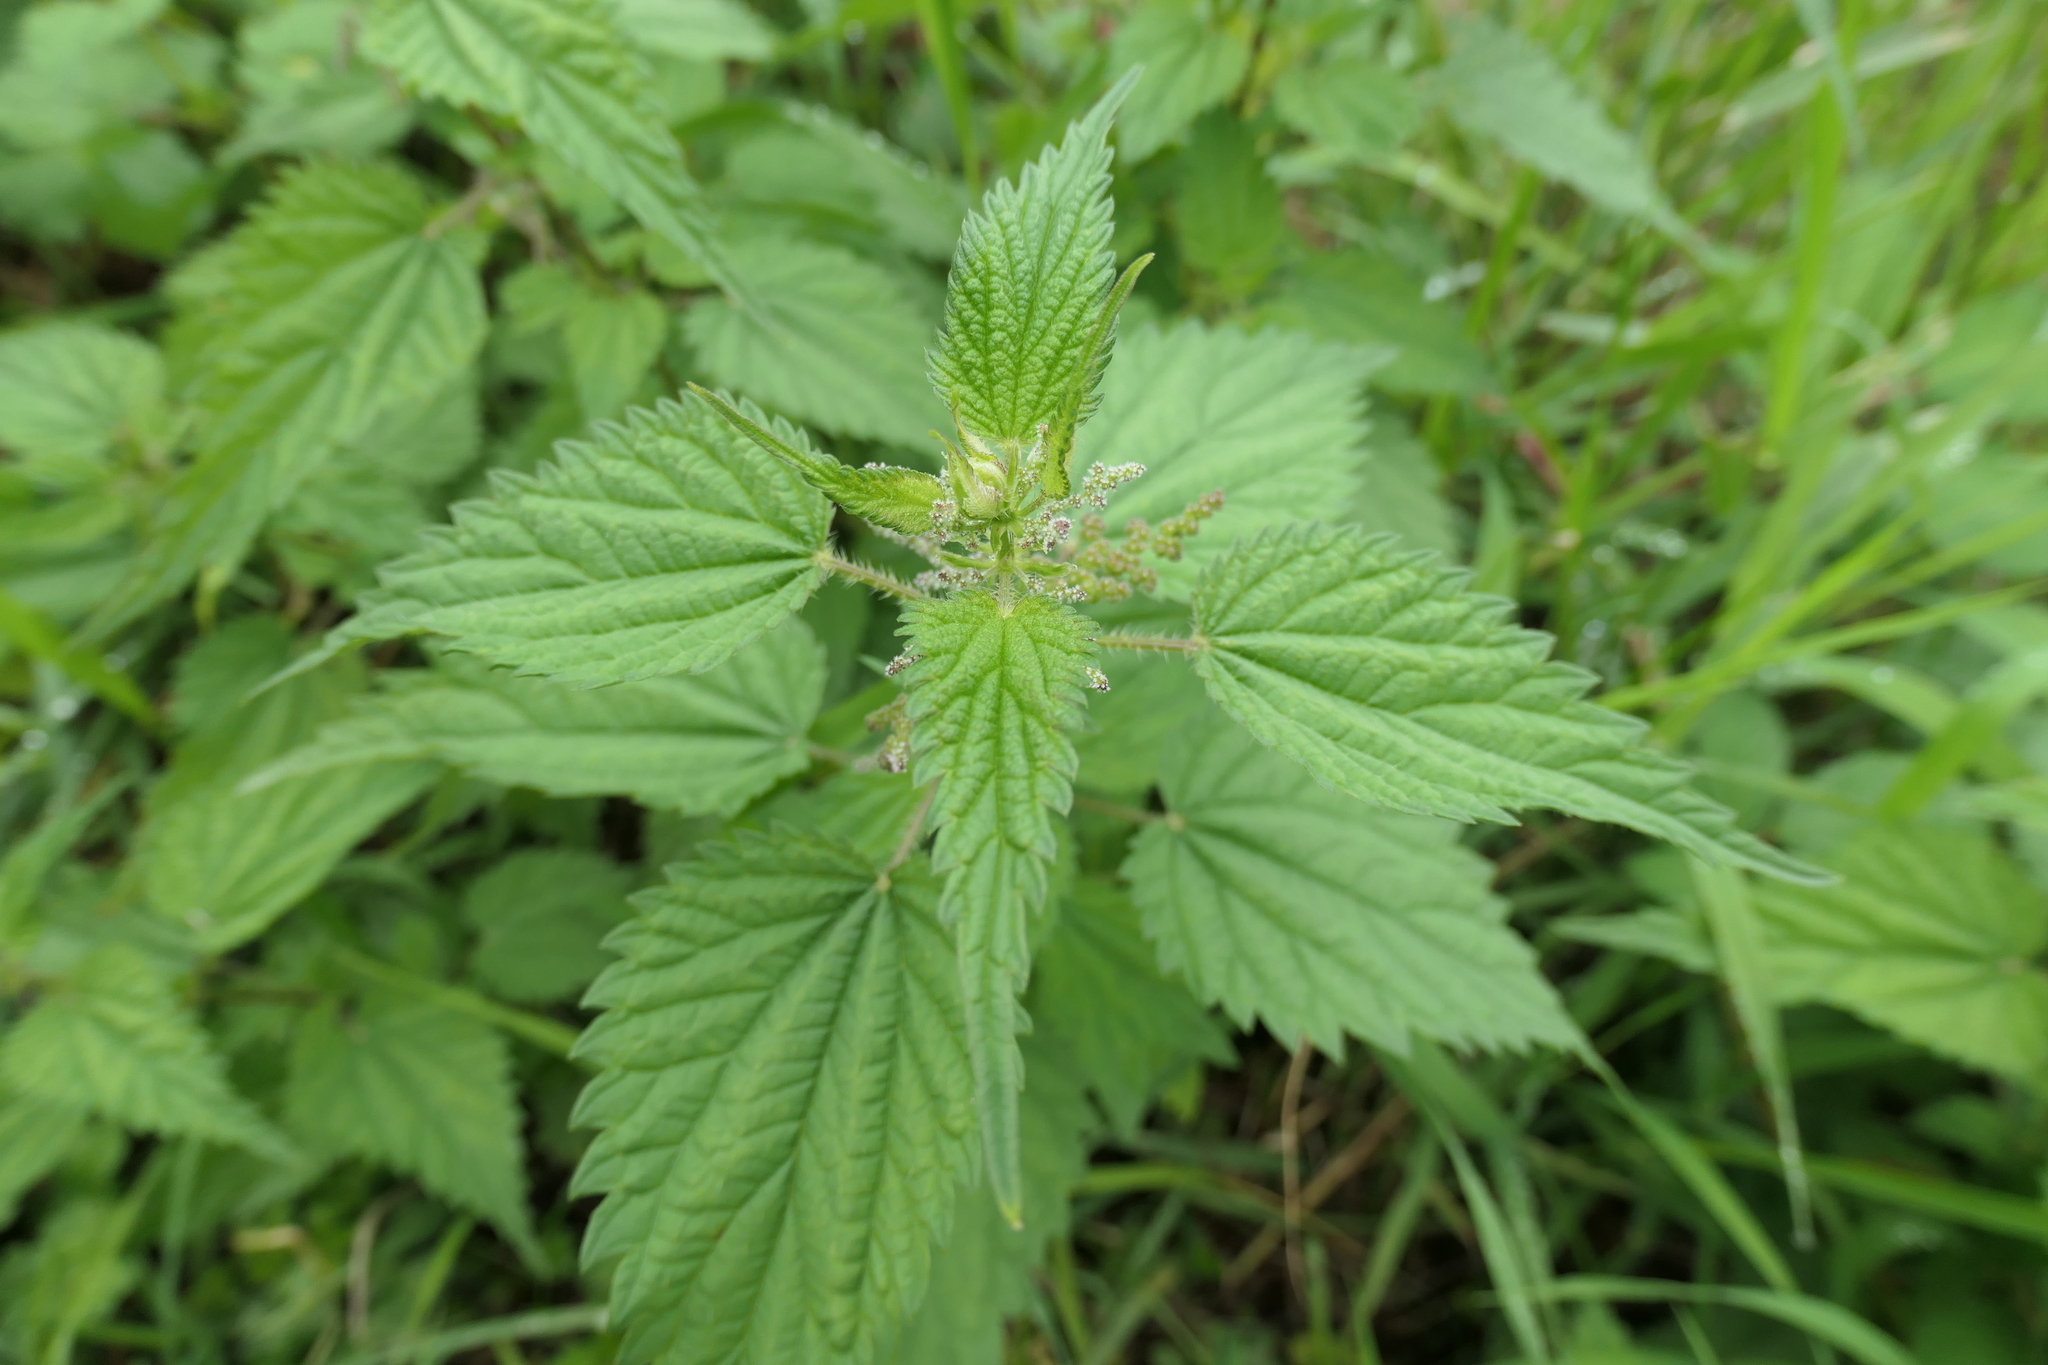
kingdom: Plantae
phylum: Tracheophyta
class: Magnoliopsida
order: Rosales
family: Urticaceae
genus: Urtica
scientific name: Urtica dioica
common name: Common nettle
